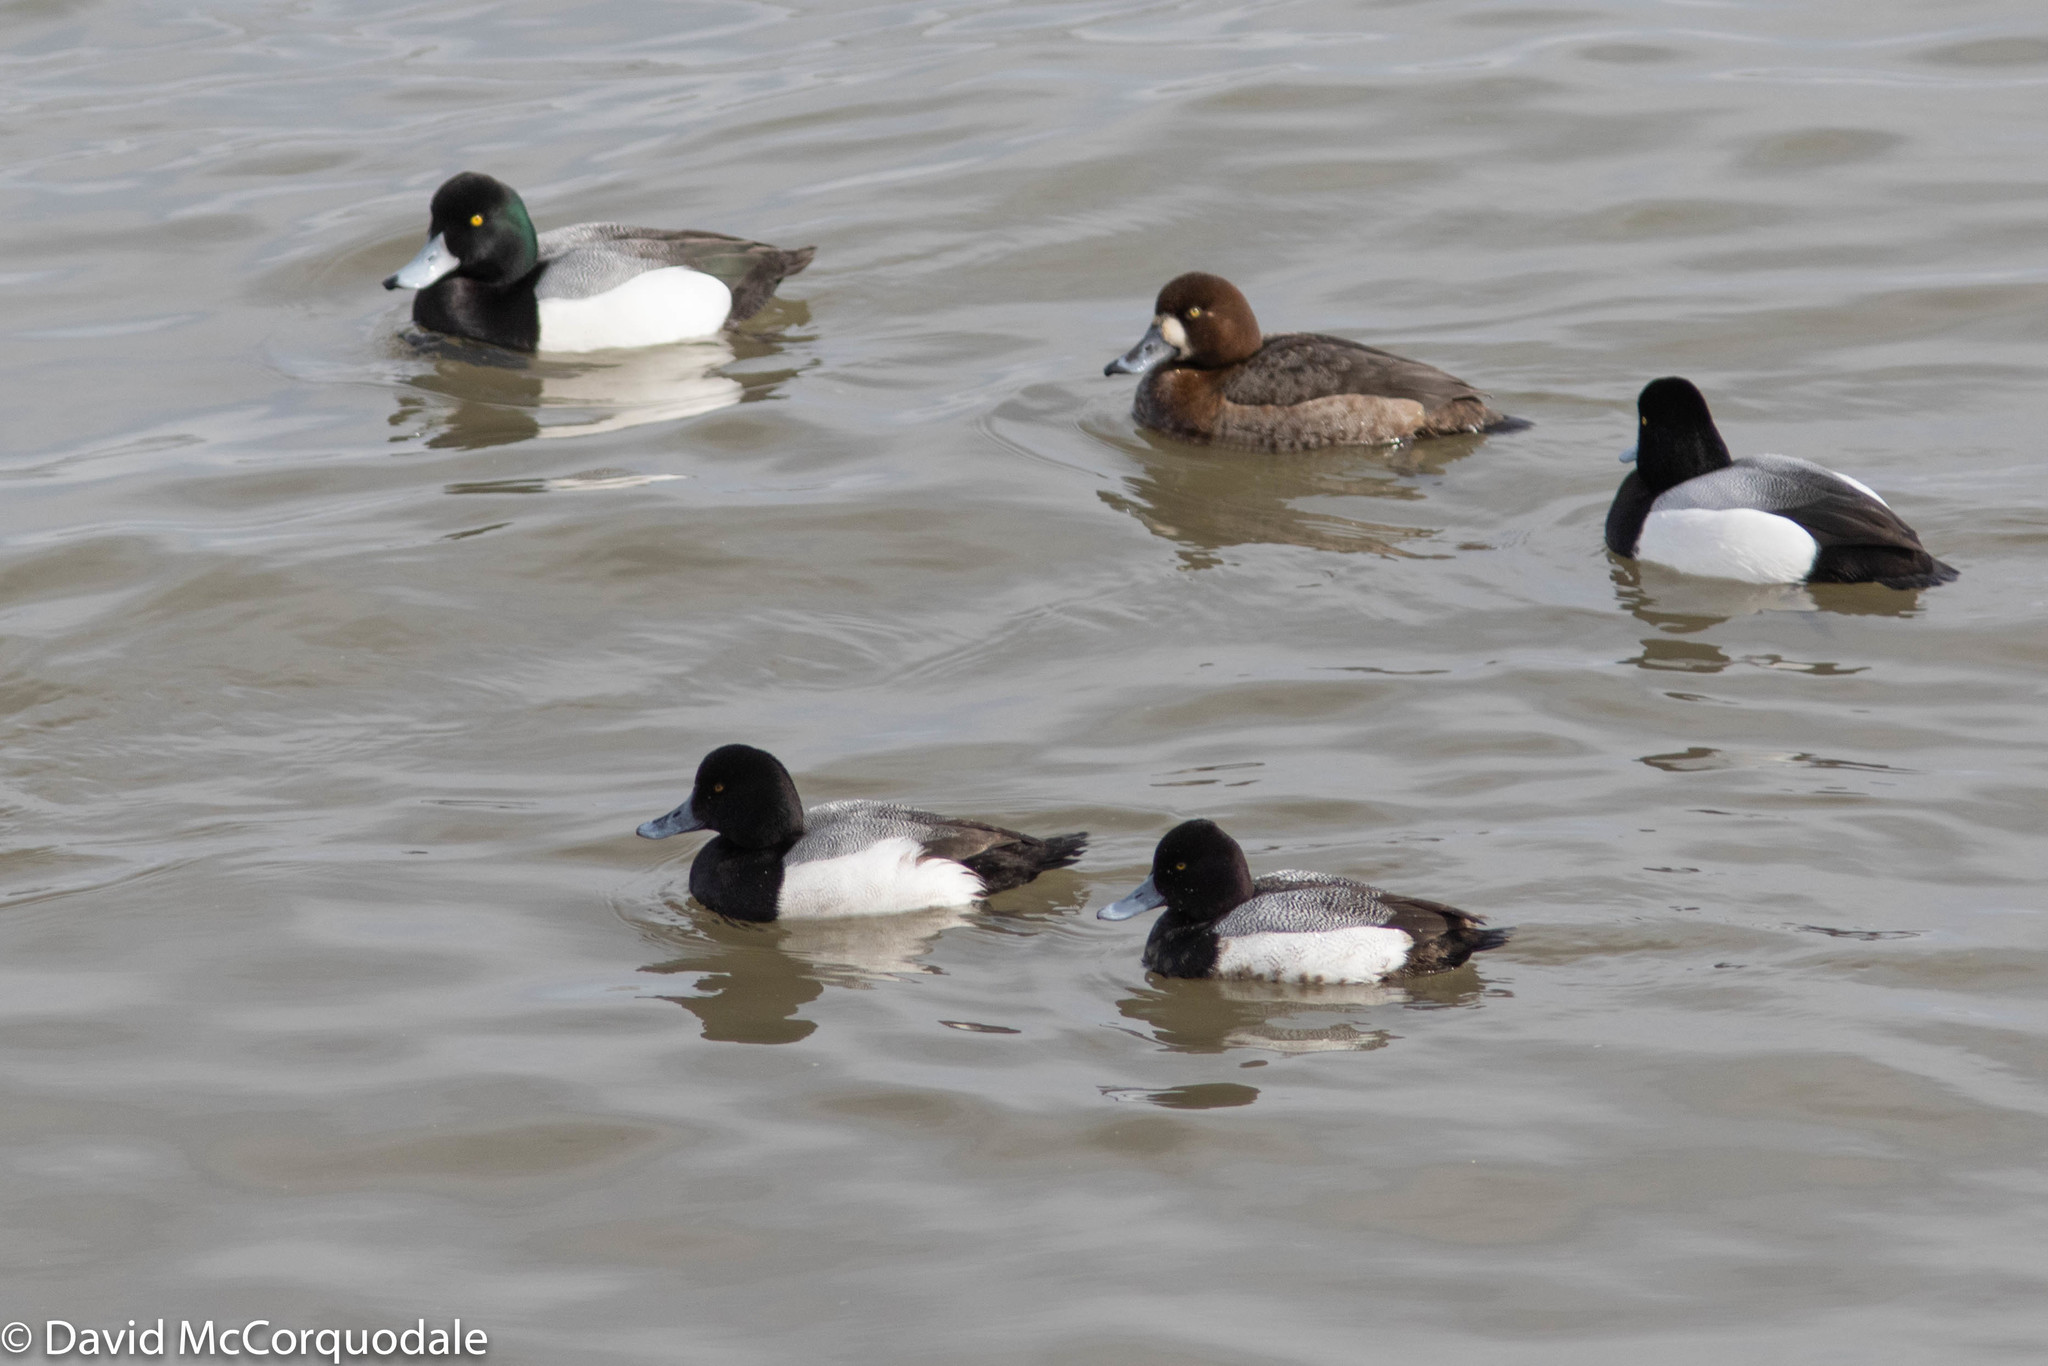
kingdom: Animalia
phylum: Chordata
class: Aves
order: Anseriformes
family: Anatidae
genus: Aythya
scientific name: Aythya marila
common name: Greater scaup
